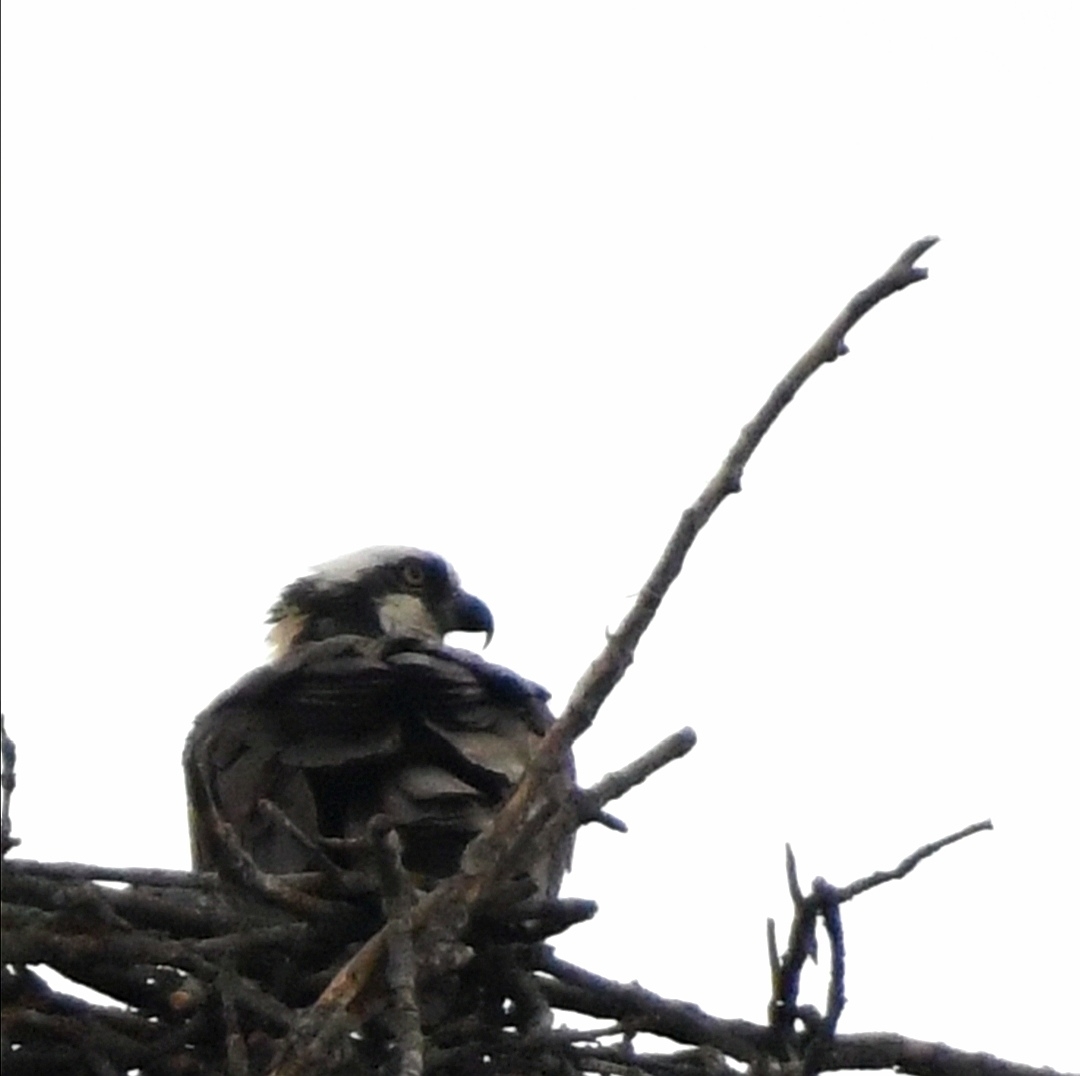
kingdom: Animalia
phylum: Chordata
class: Aves
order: Accipitriformes
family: Pandionidae
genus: Pandion
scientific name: Pandion haliaetus
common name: Osprey
